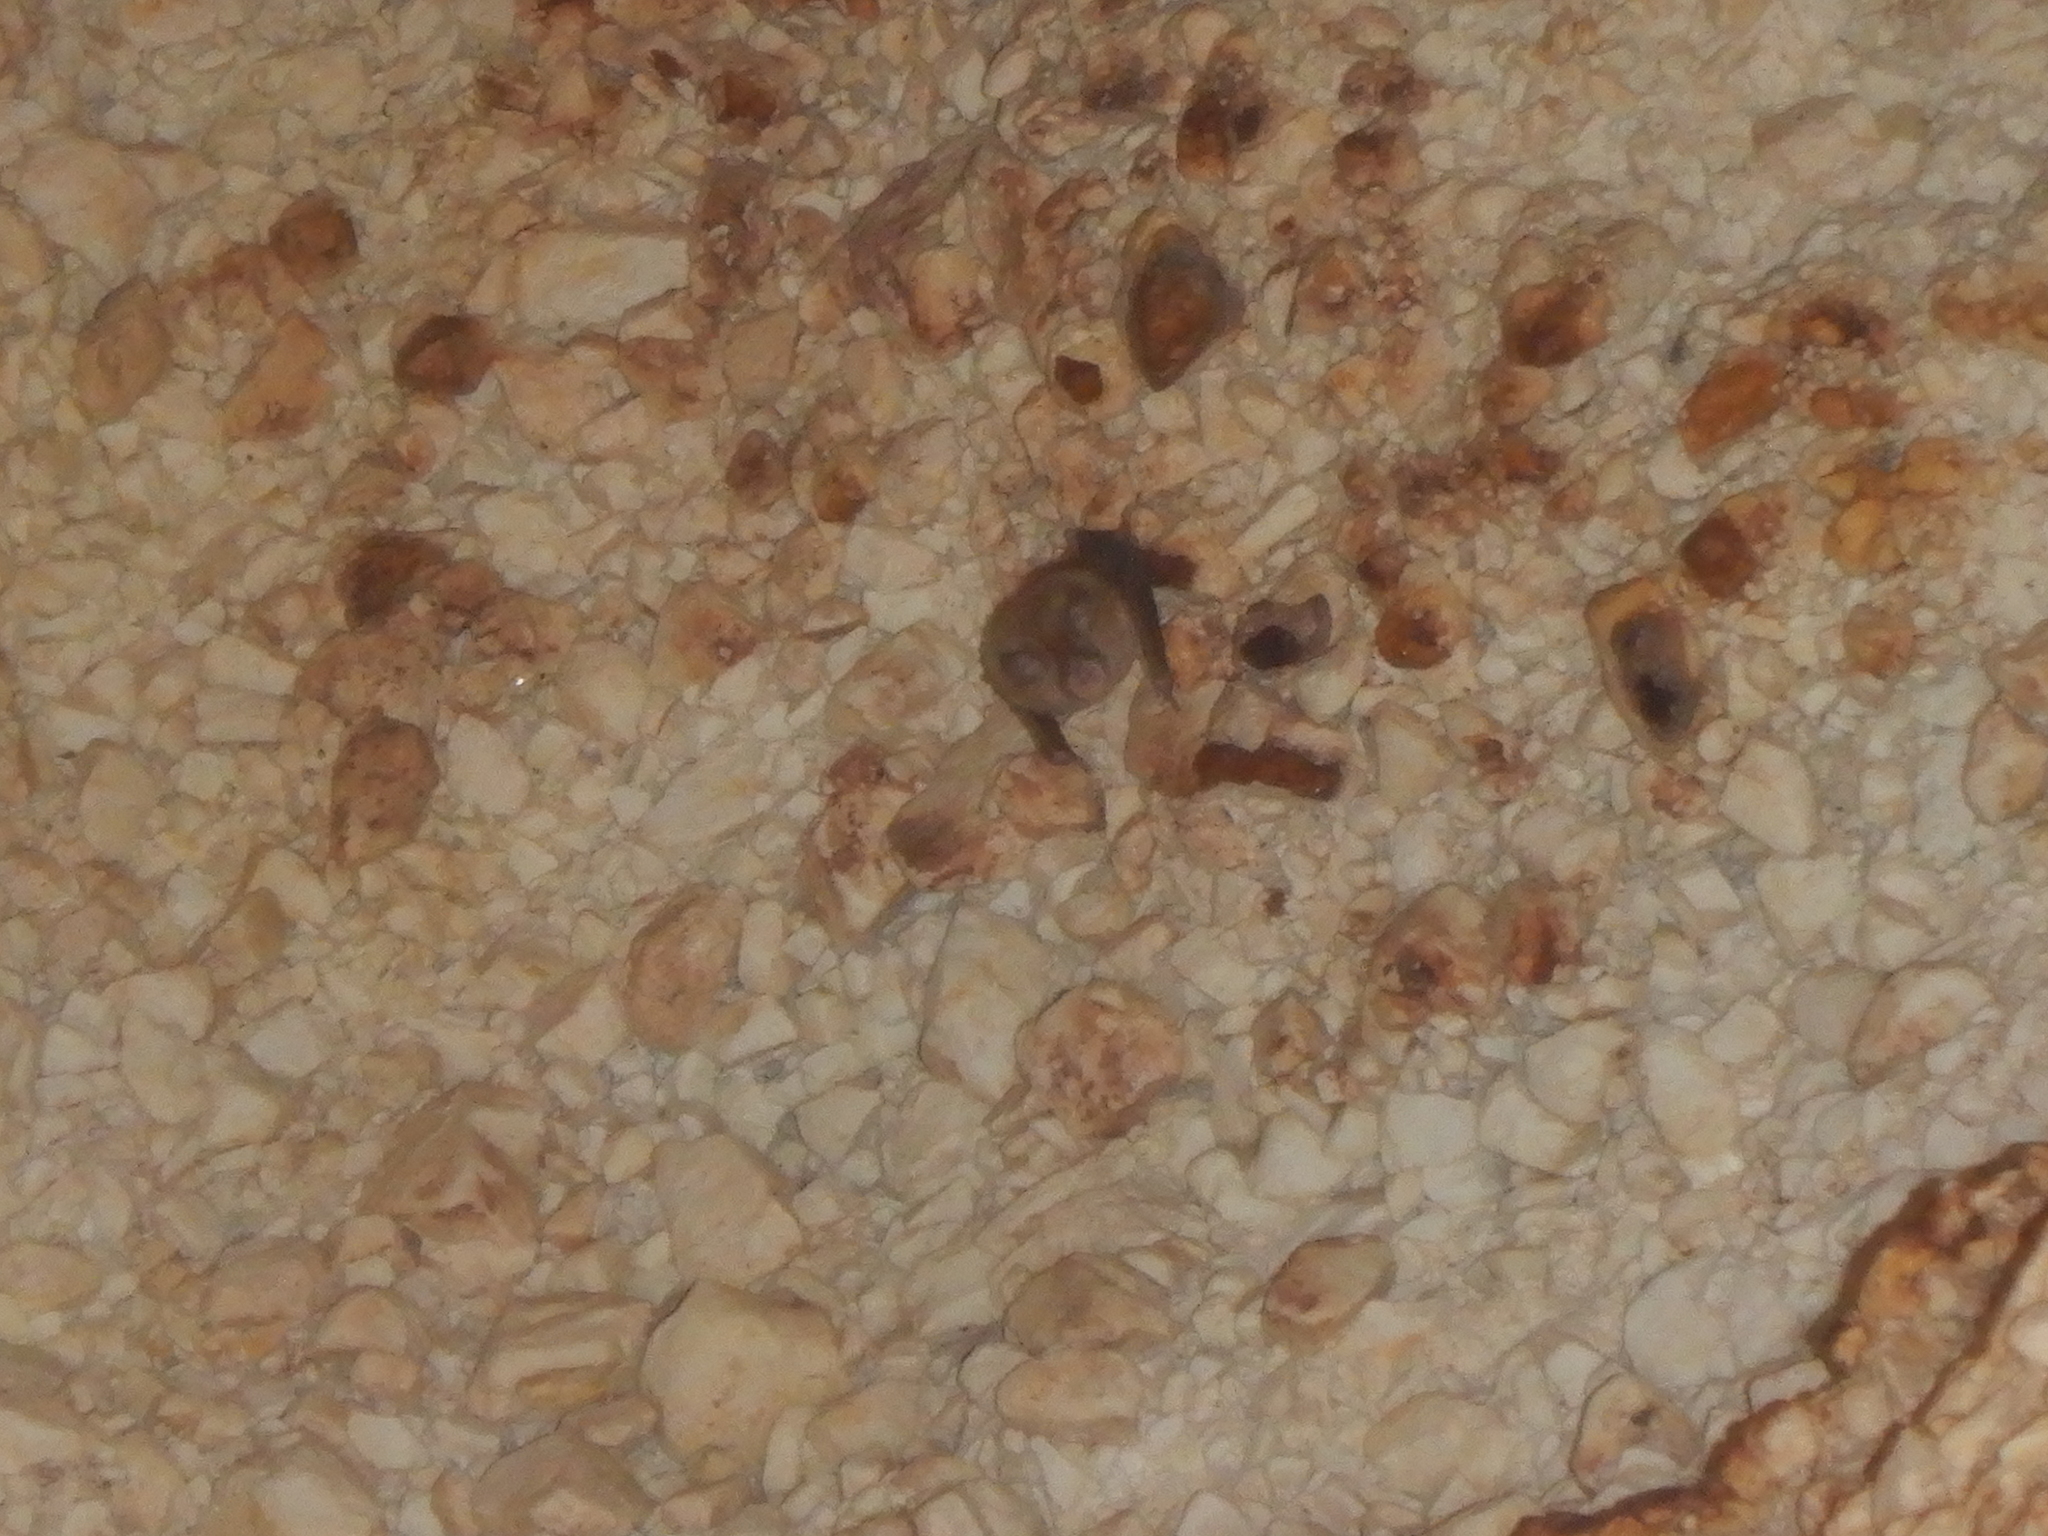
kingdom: Animalia
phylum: Chordata
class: Mammalia
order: Chiroptera
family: Rhinolophidae
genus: Rhinolophus
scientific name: Rhinolophus
